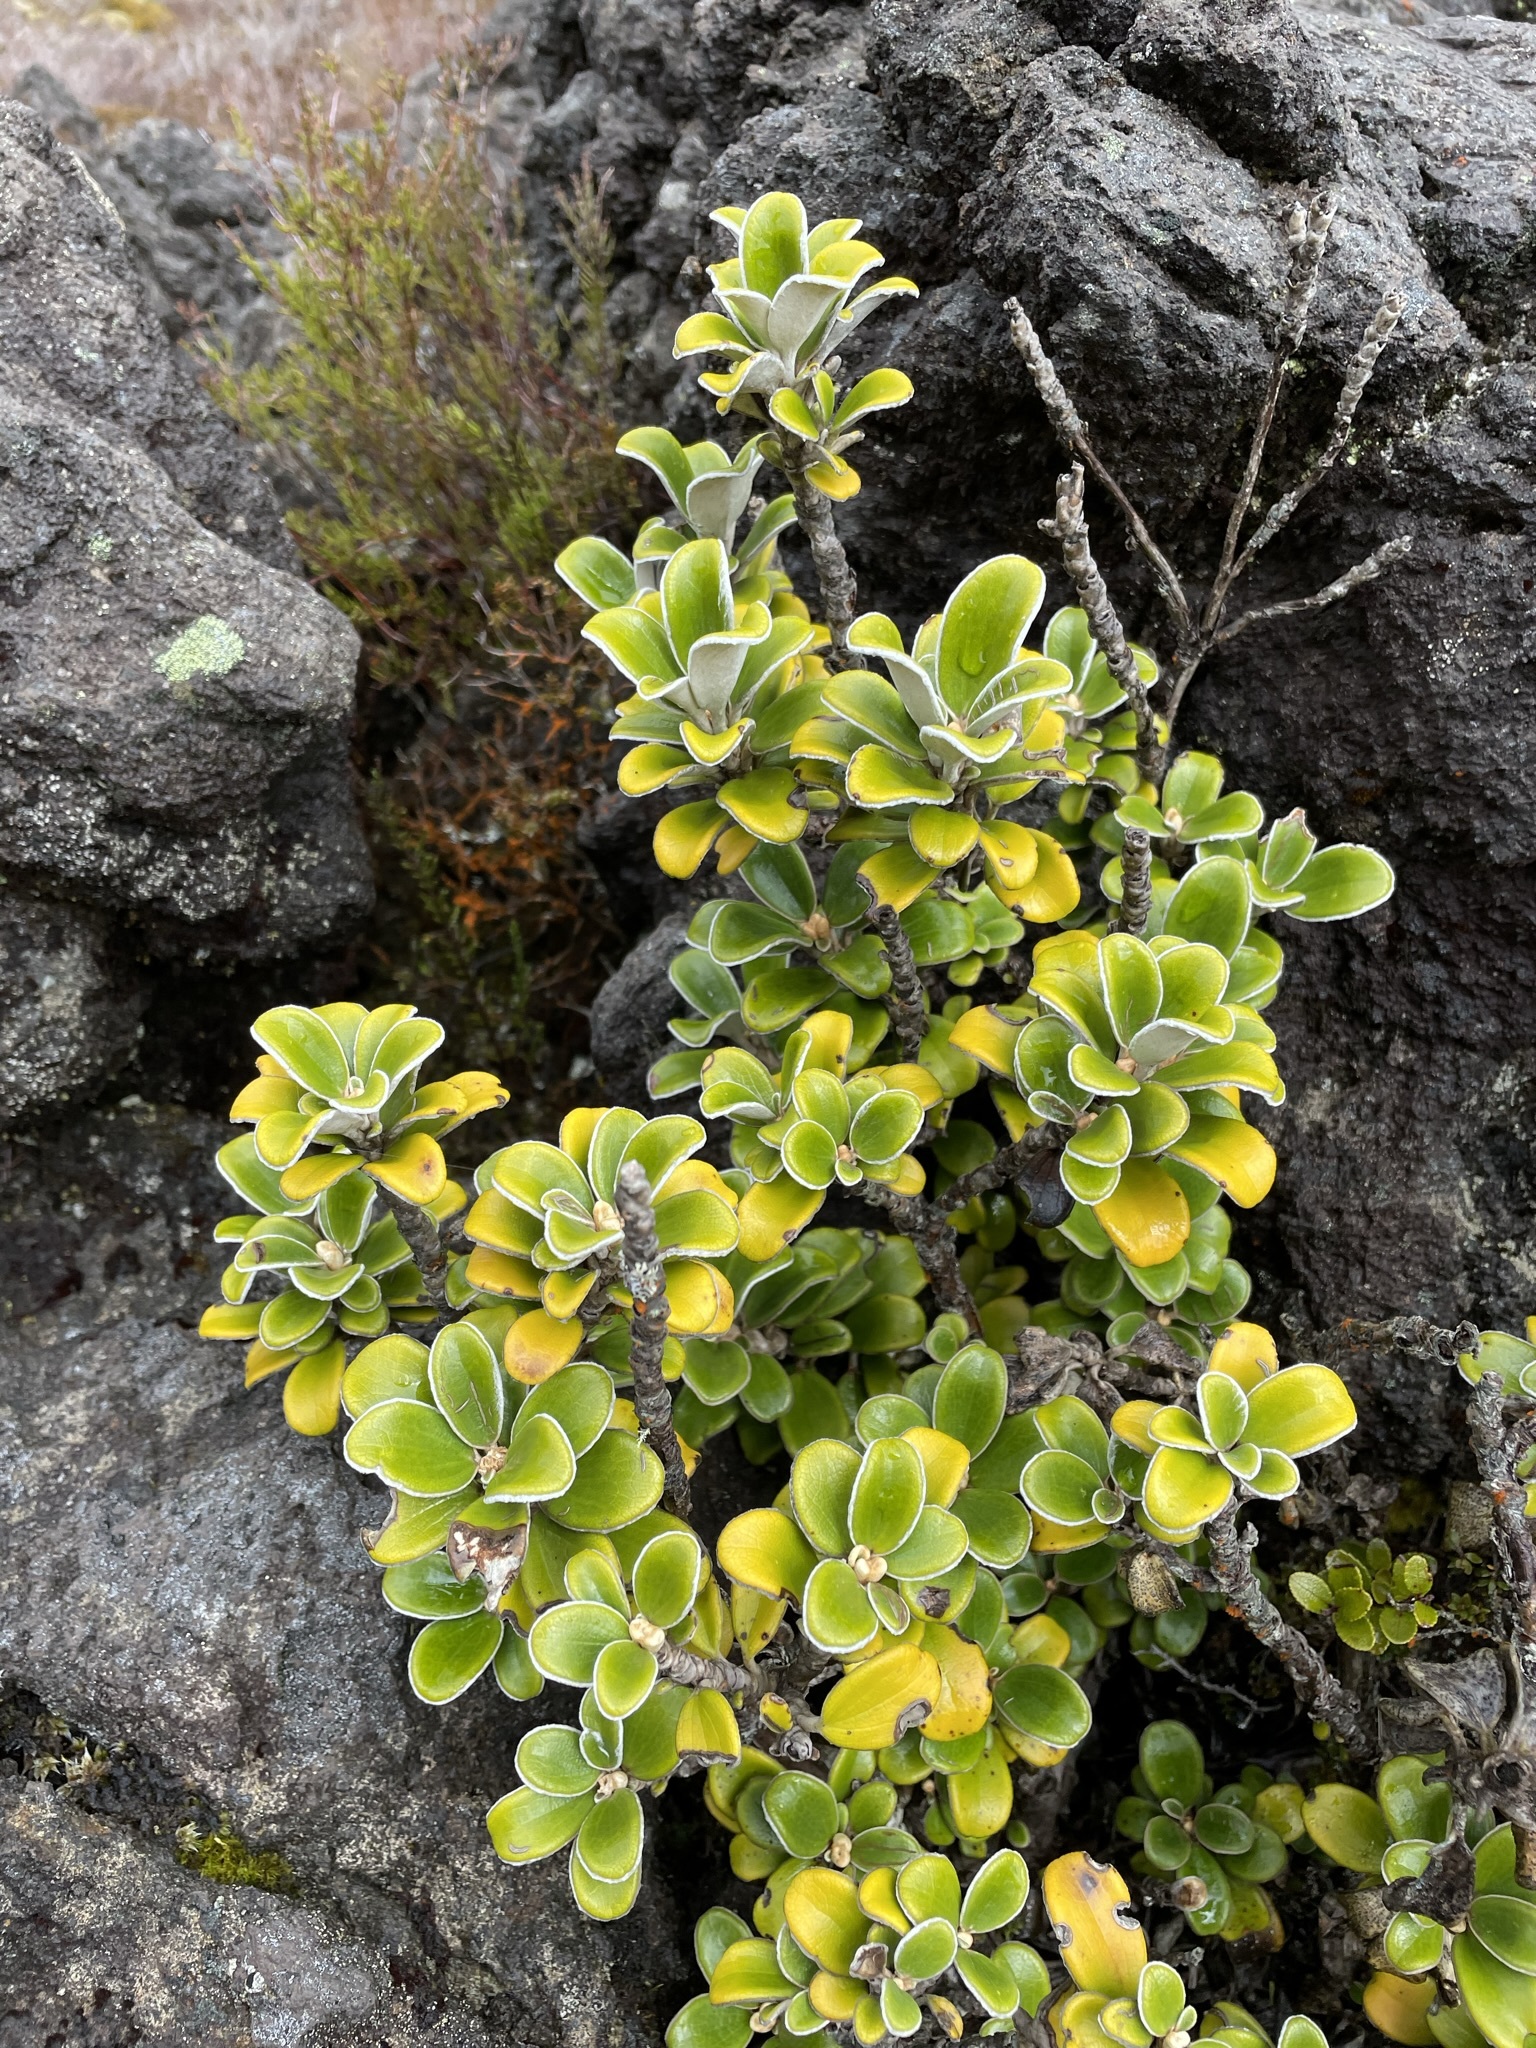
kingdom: Plantae
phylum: Tracheophyta
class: Magnoliopsida
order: Asterales
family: Asteraceae
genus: Brachyglottis
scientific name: Brachyglottis bidwillii
